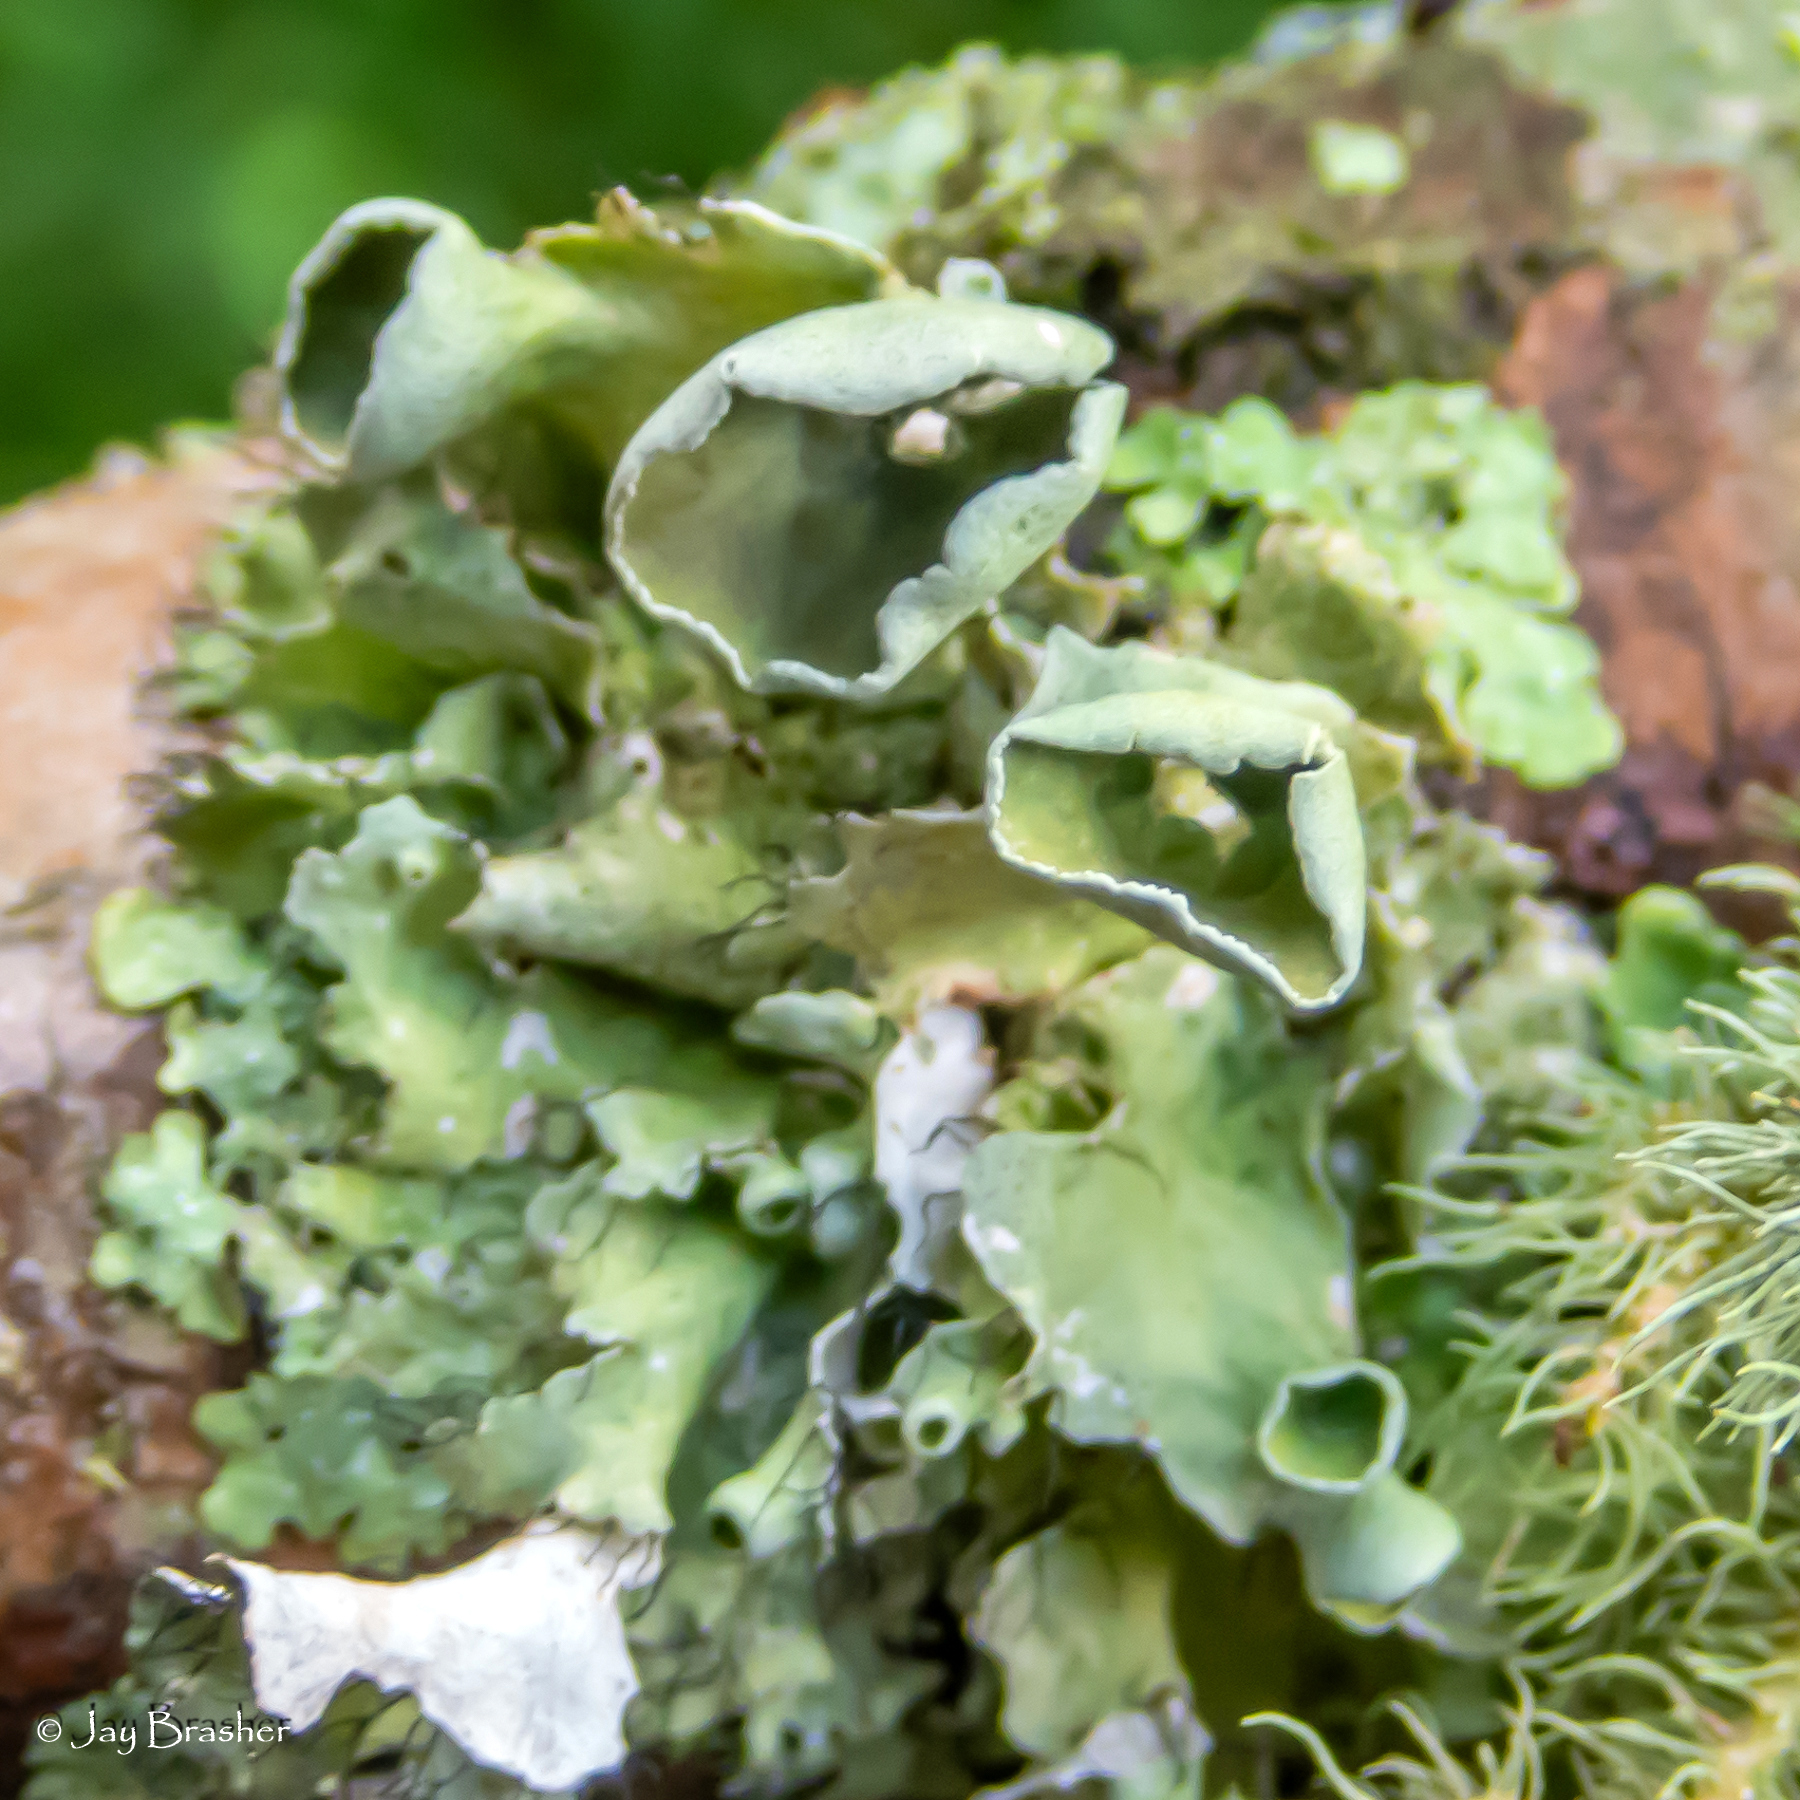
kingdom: Fungi
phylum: Ascomycota
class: Lecanoromycetes
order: Lecanorales
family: Parmeliaceae
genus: Parmotrema
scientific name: Parmotrema perforatum
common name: Perforated ruffle lichen
